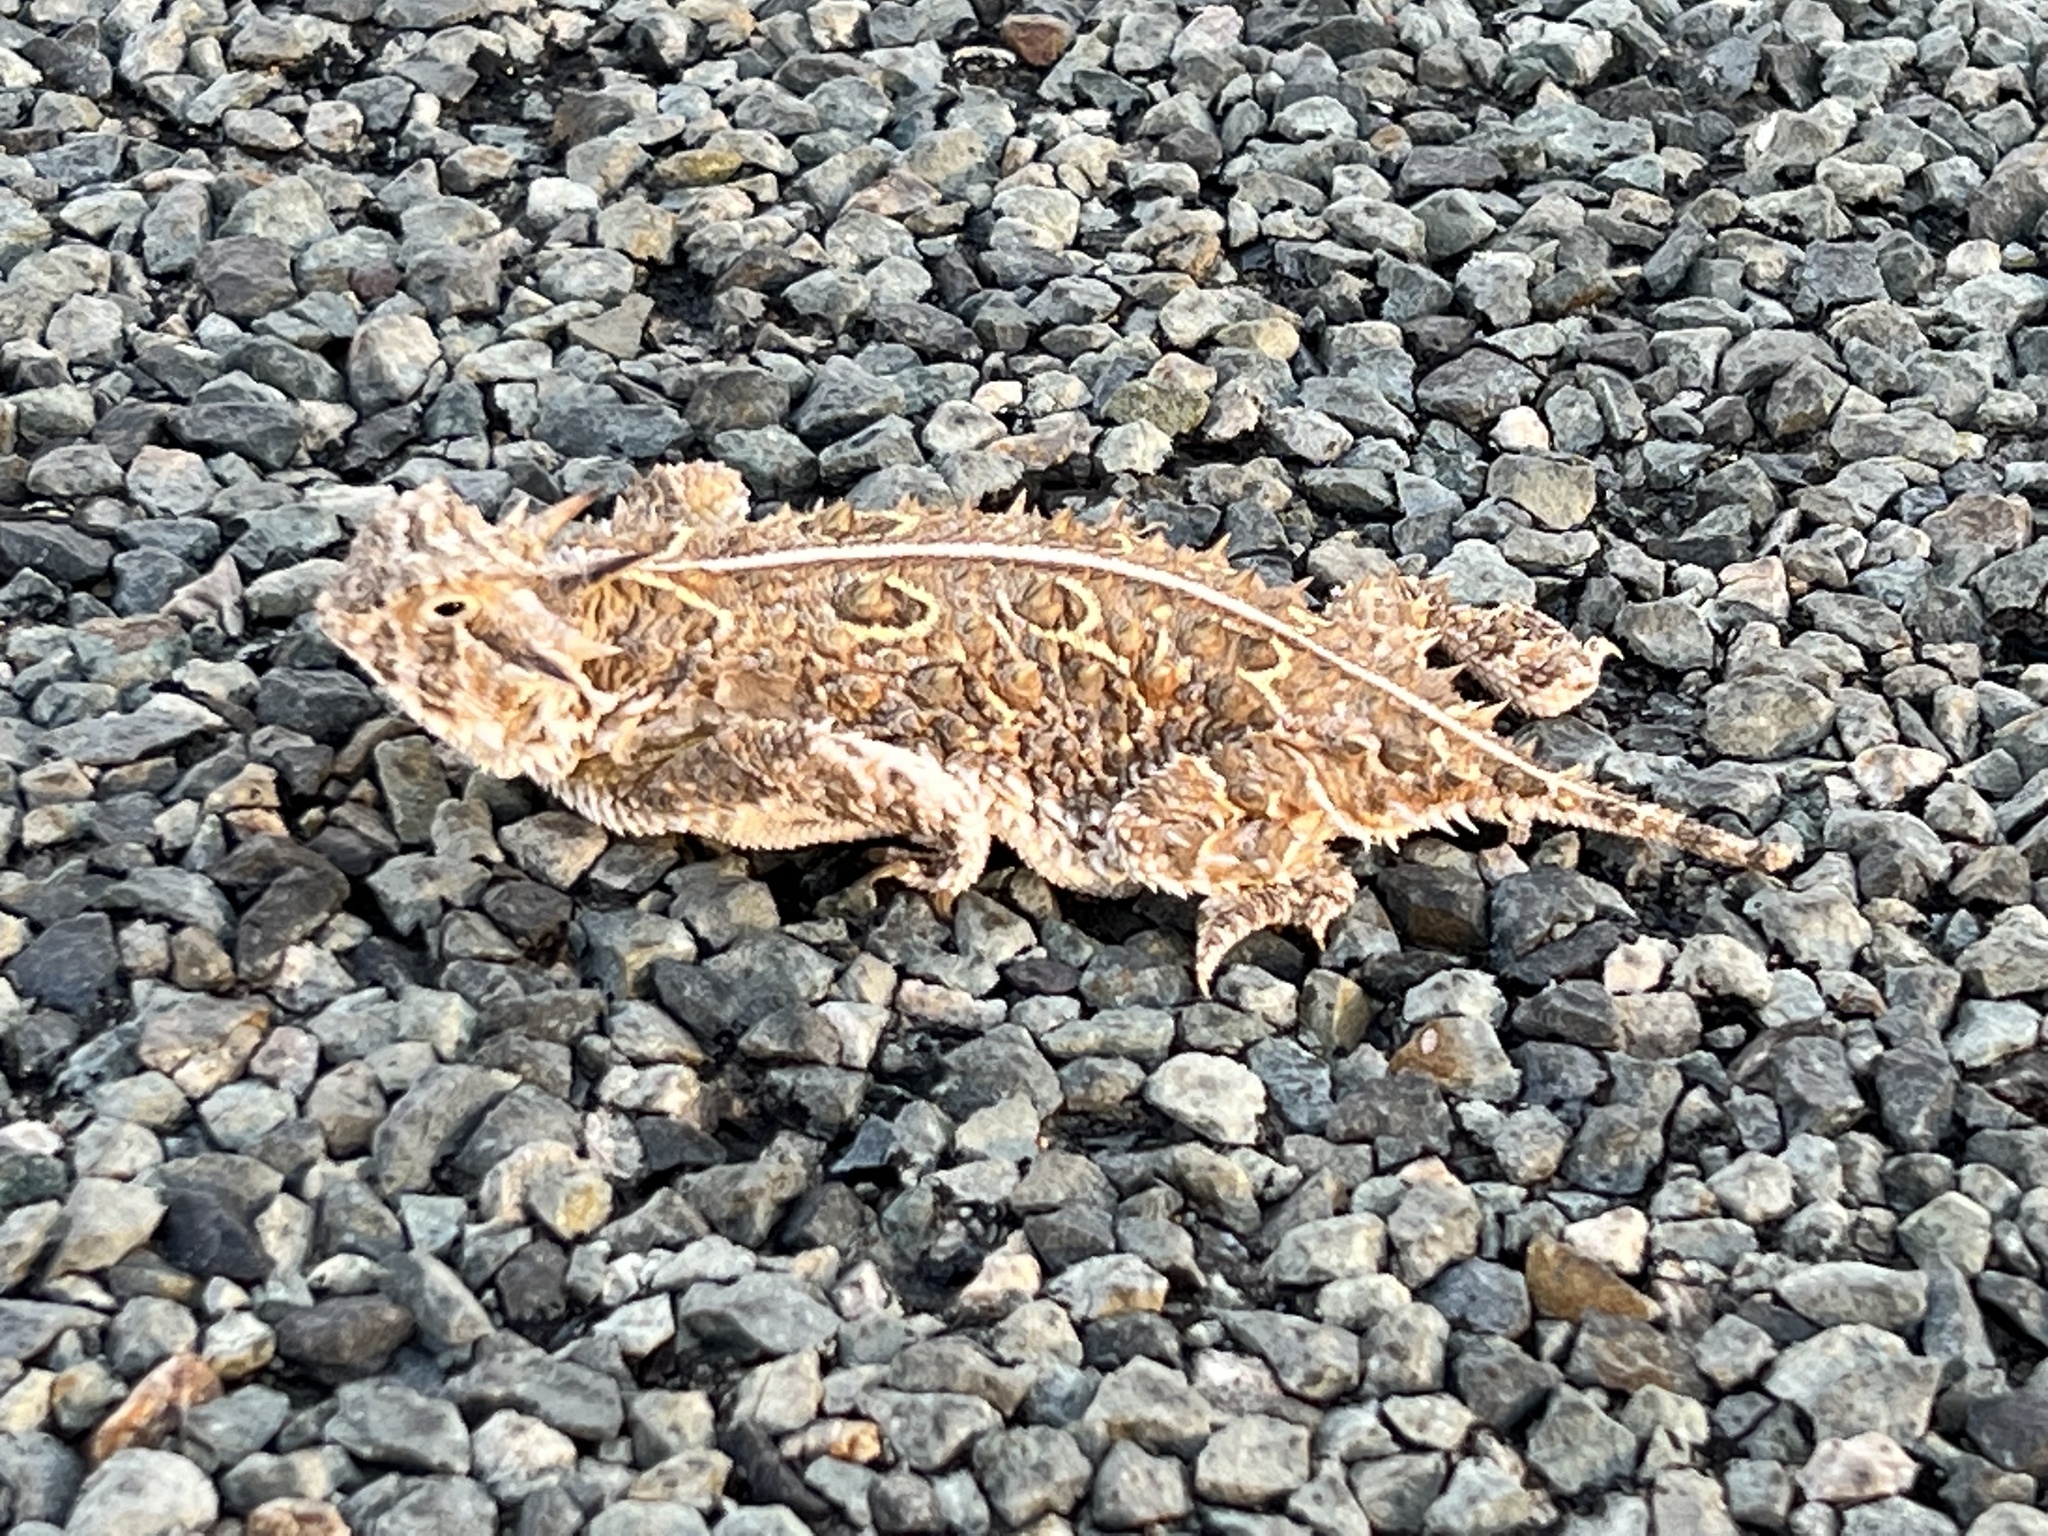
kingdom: Animalia
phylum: Chordata
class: Squamata
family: Phrynosomatidae
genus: Phrynosoma
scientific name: Phrynosoma cornutum
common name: Texas horned lizard
